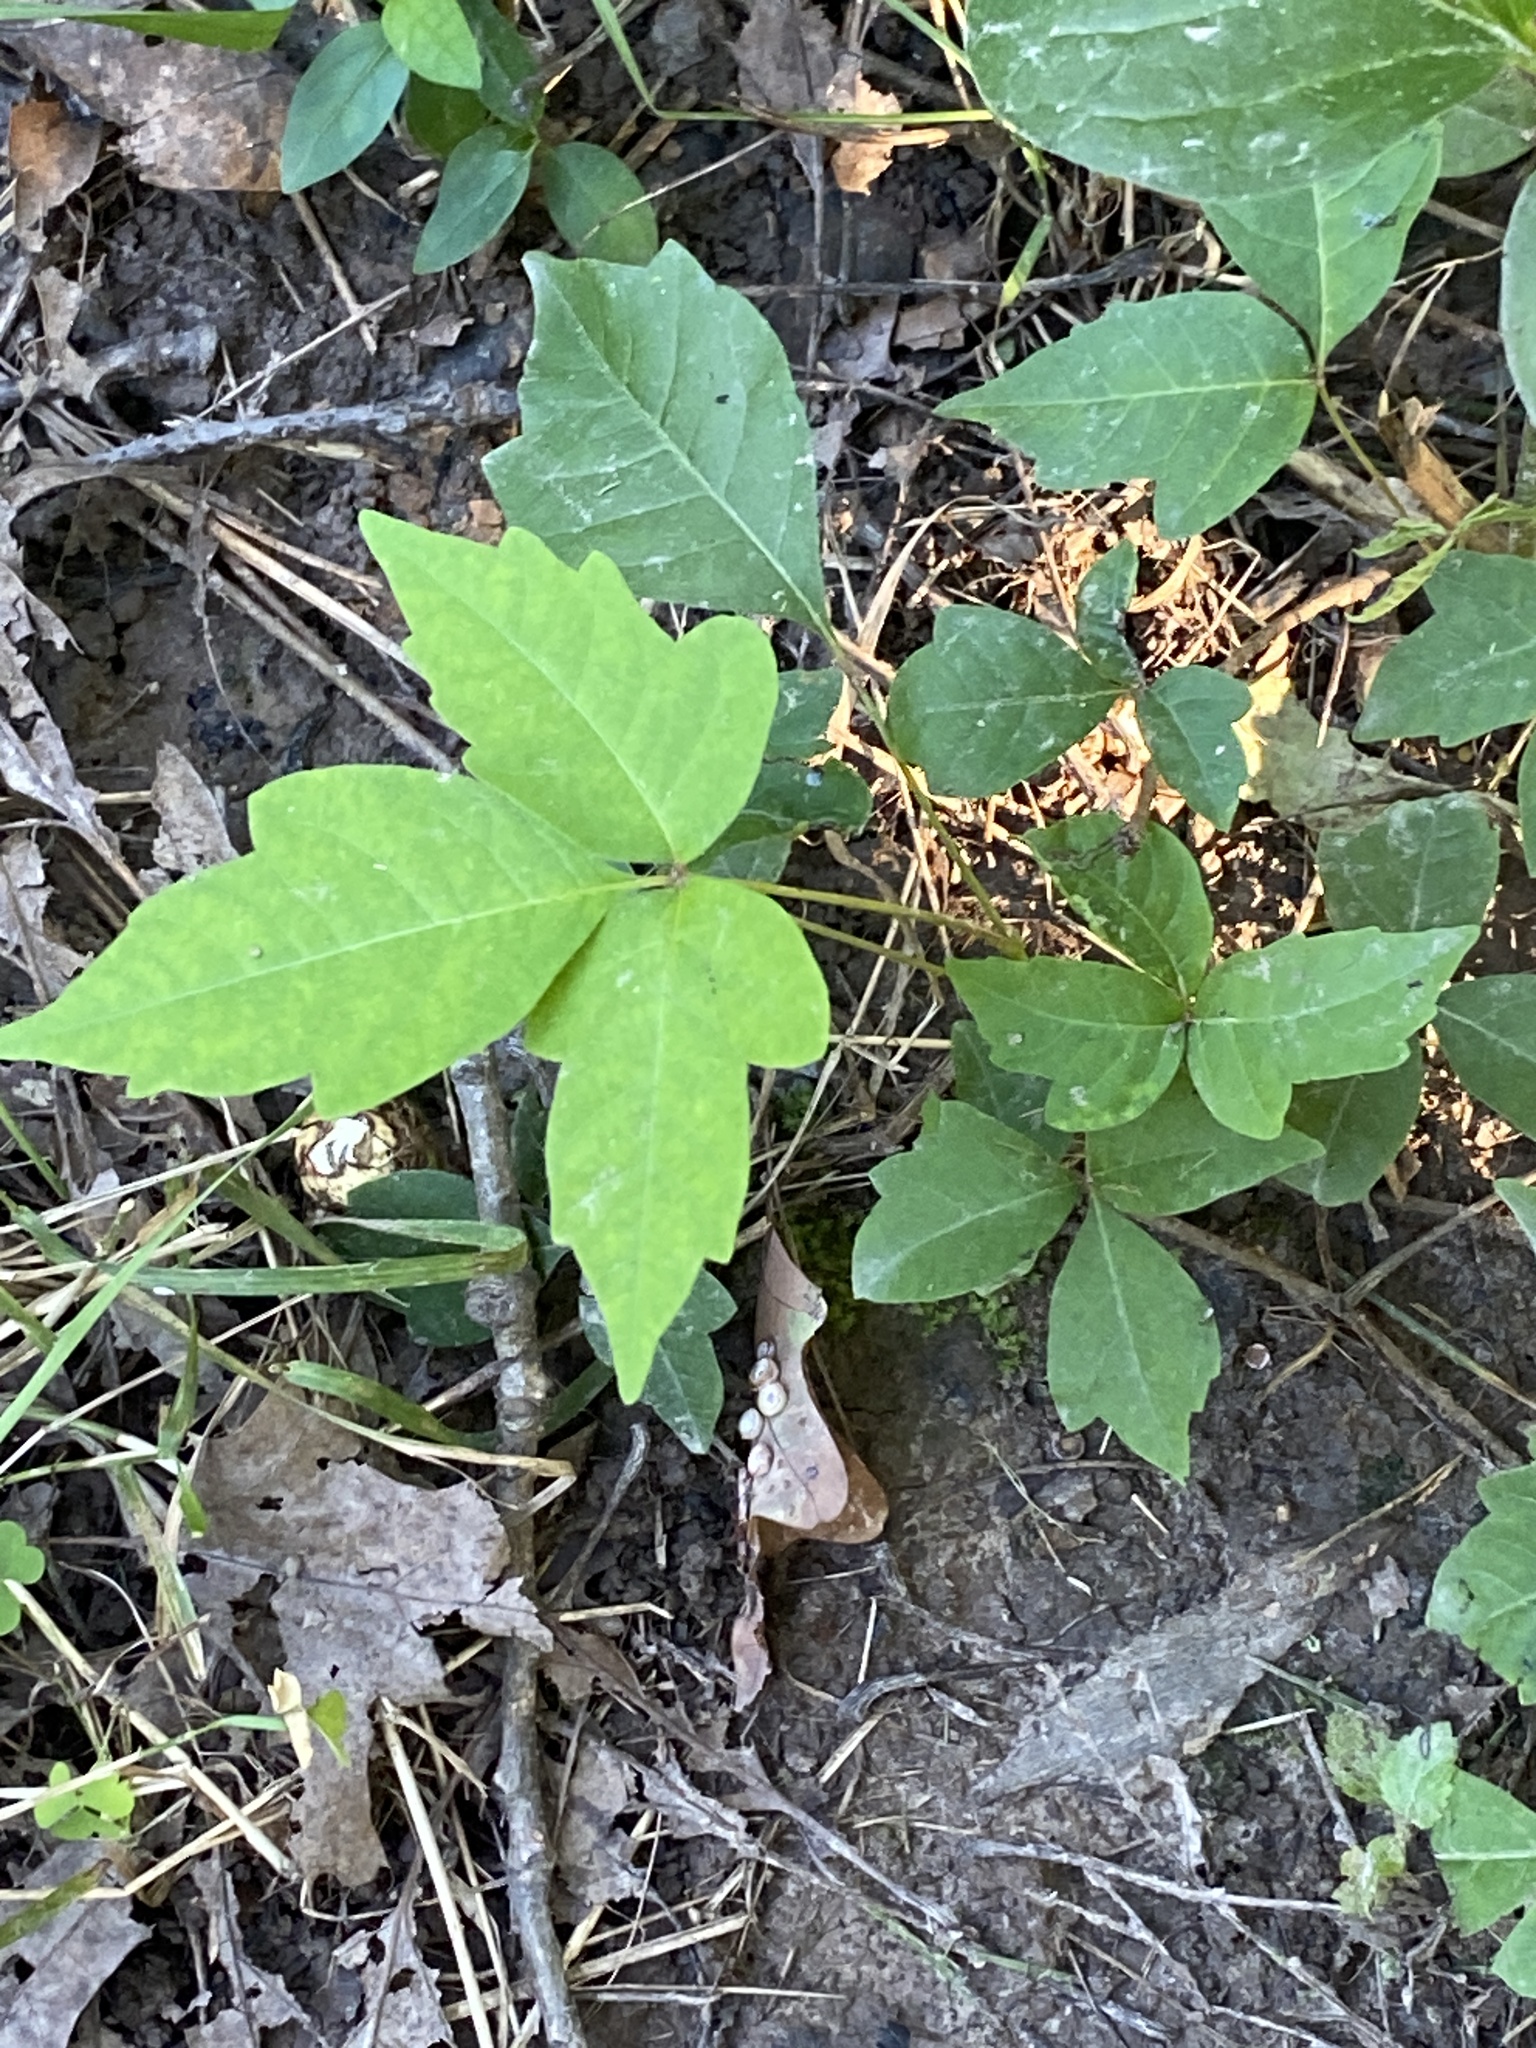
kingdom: Plantae
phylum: Tracheophyta
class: Magnoliopsida
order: Sapindales
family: Anacardiaceae
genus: Toxicodendron
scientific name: Toxicodendron radicans
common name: Poison ivy
